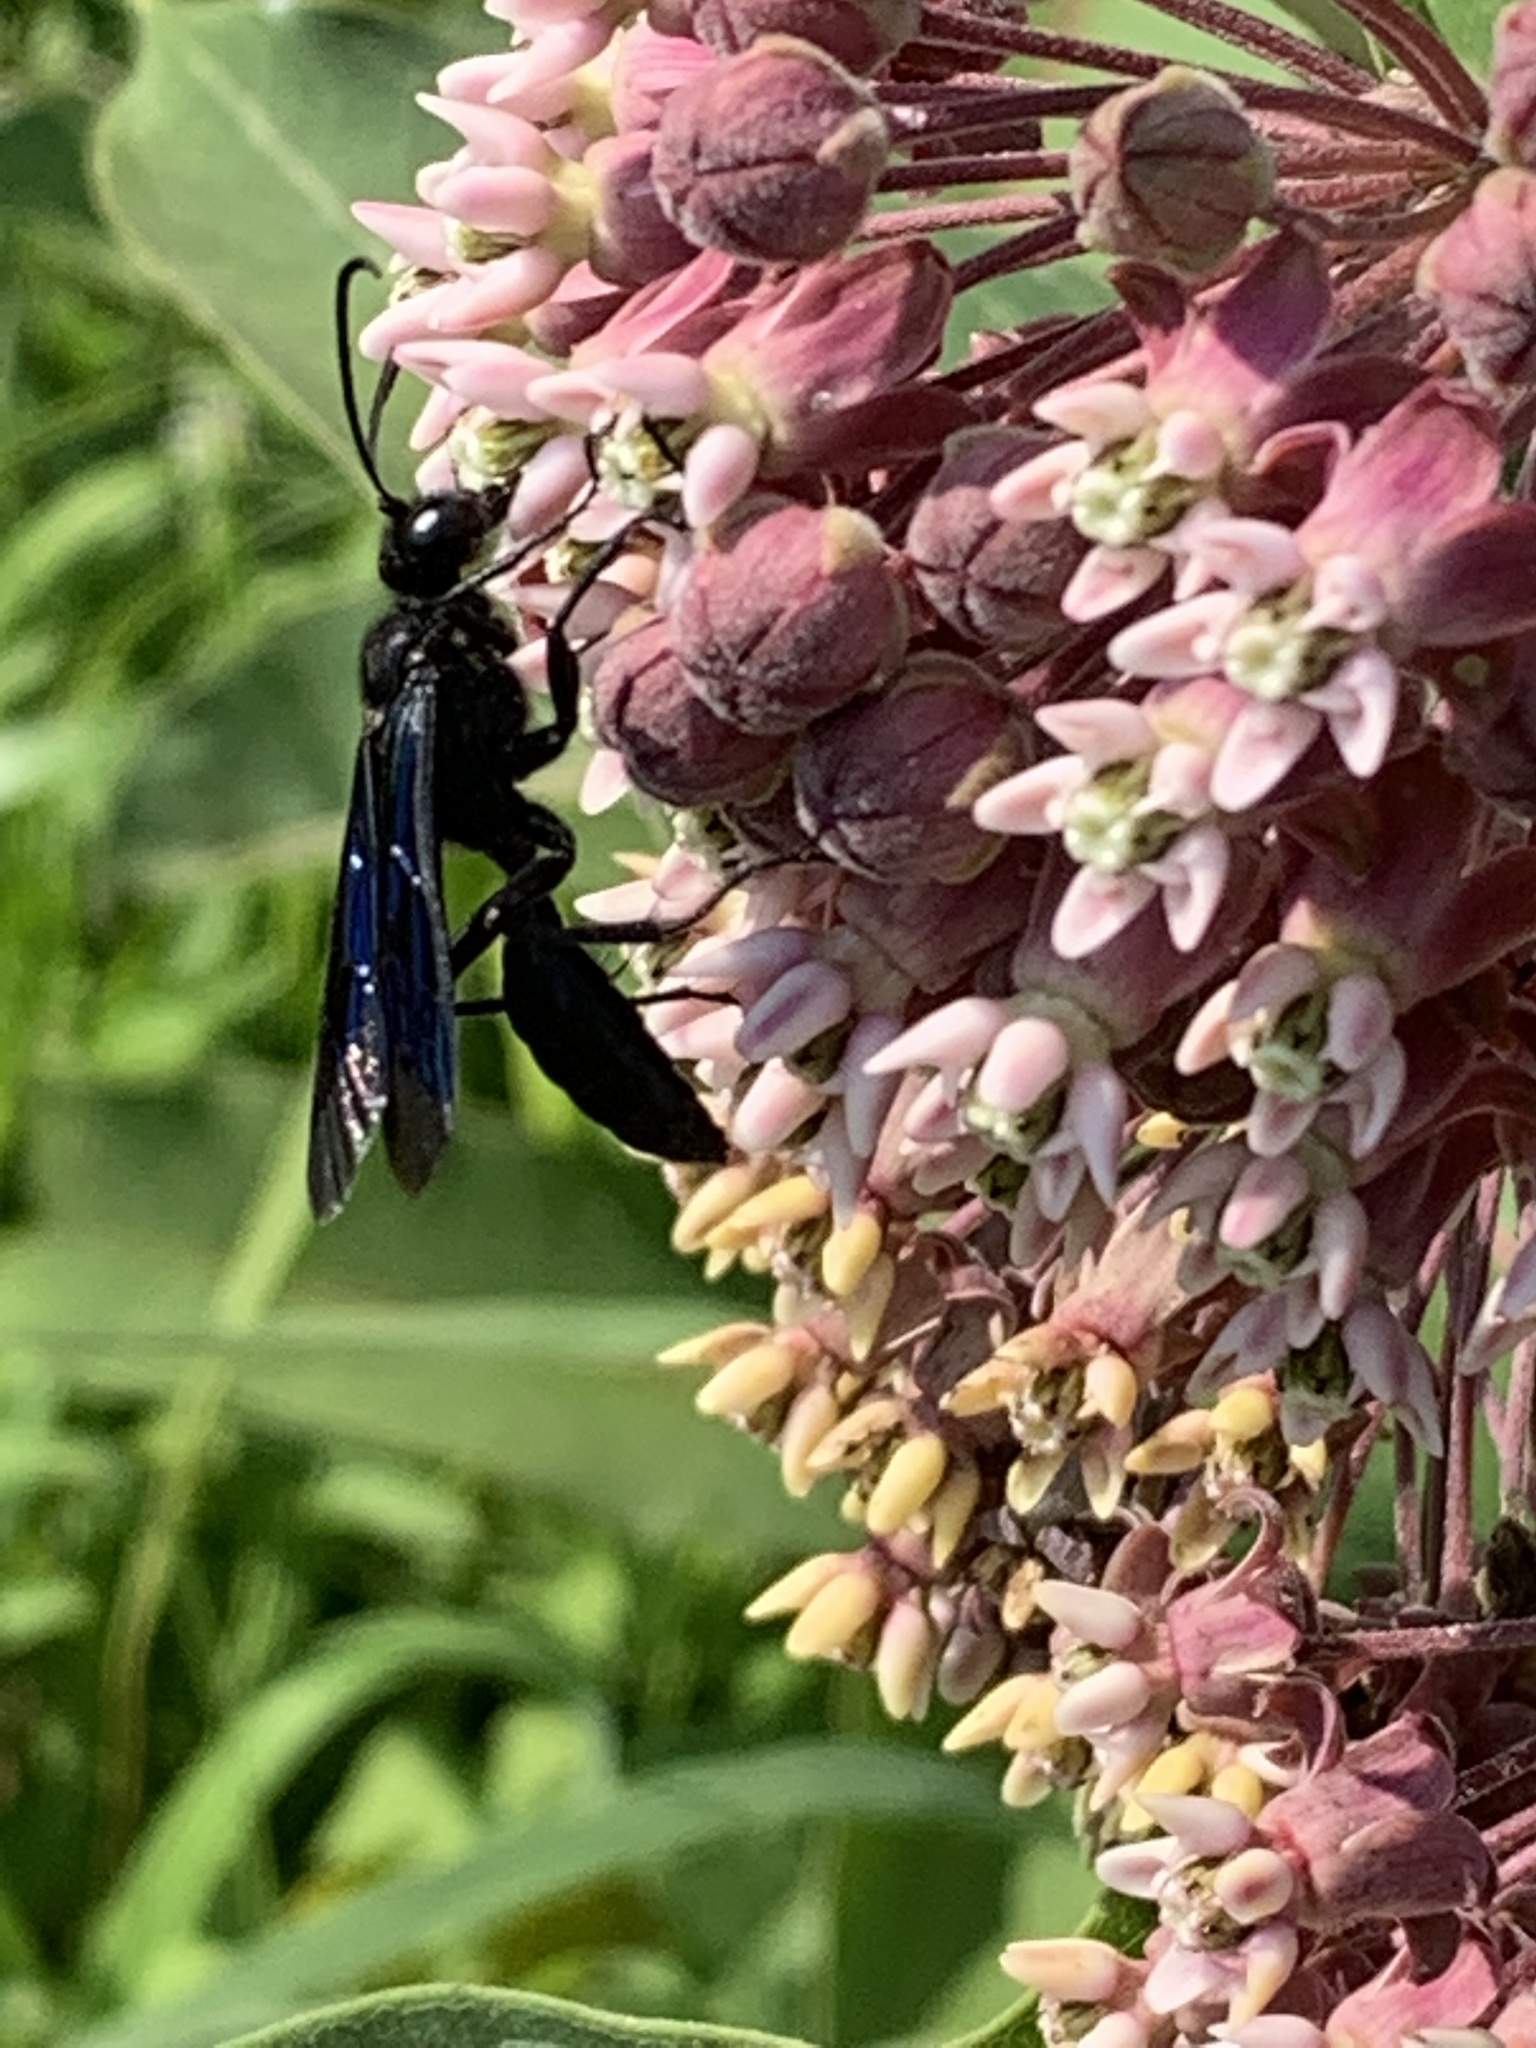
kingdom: Animalia
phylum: Arthropoda
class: Insecta
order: Hymenoptera
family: Sphecidae
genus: Sphex
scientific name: Sphex pensylvanicus
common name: Great black digger wasp
